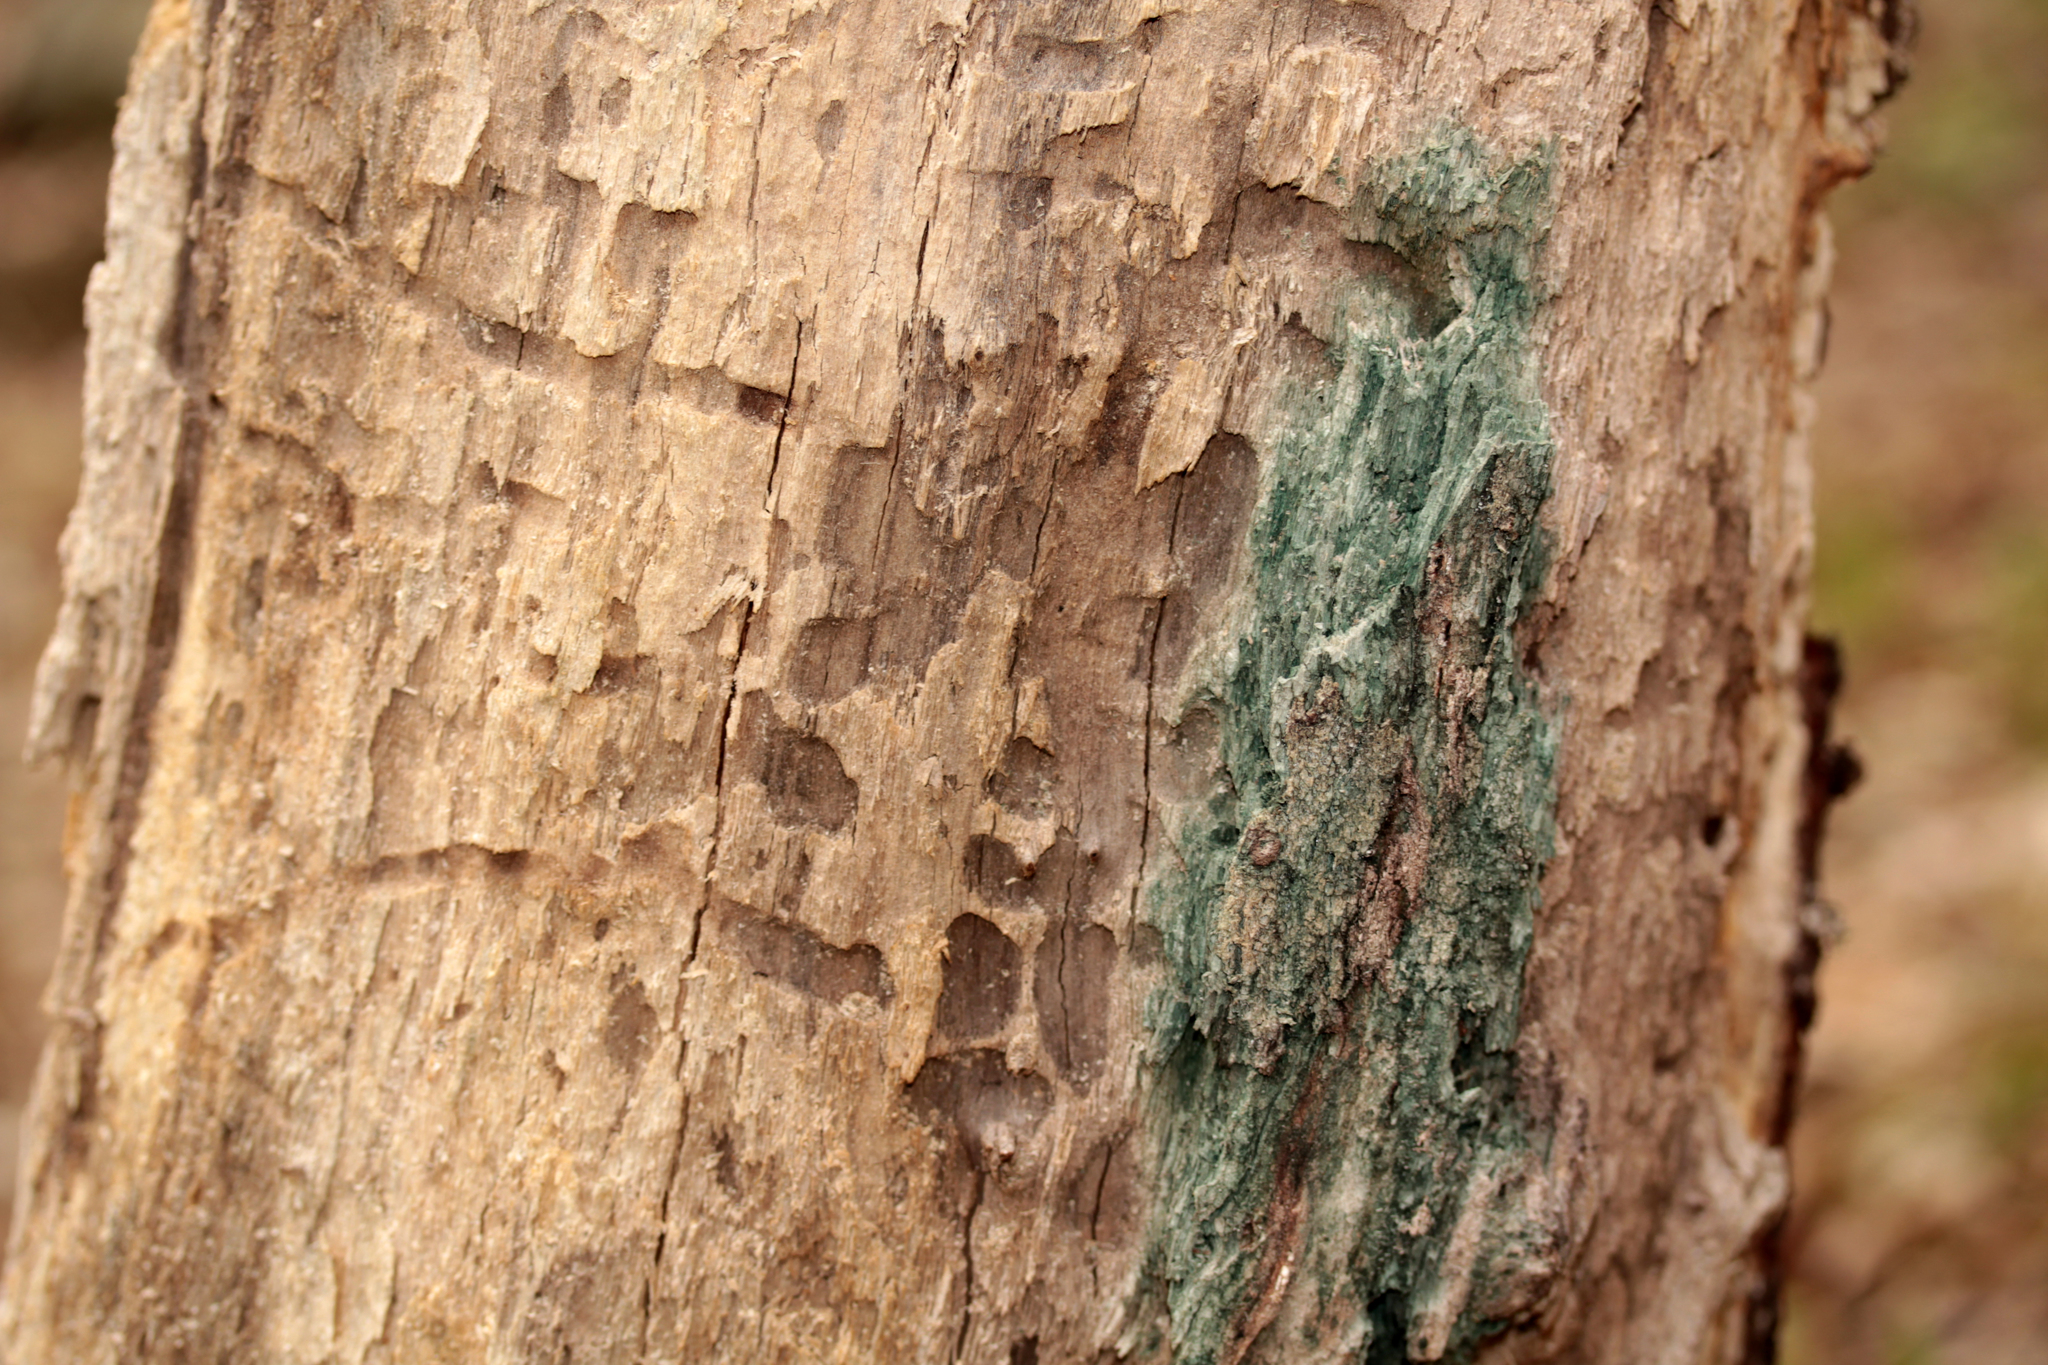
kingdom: Fungi
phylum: Ascomycota
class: Leotiomycetes
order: Helotiales
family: Chlorociboriaceae
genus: Chlorociboria
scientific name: Chlorociboria
